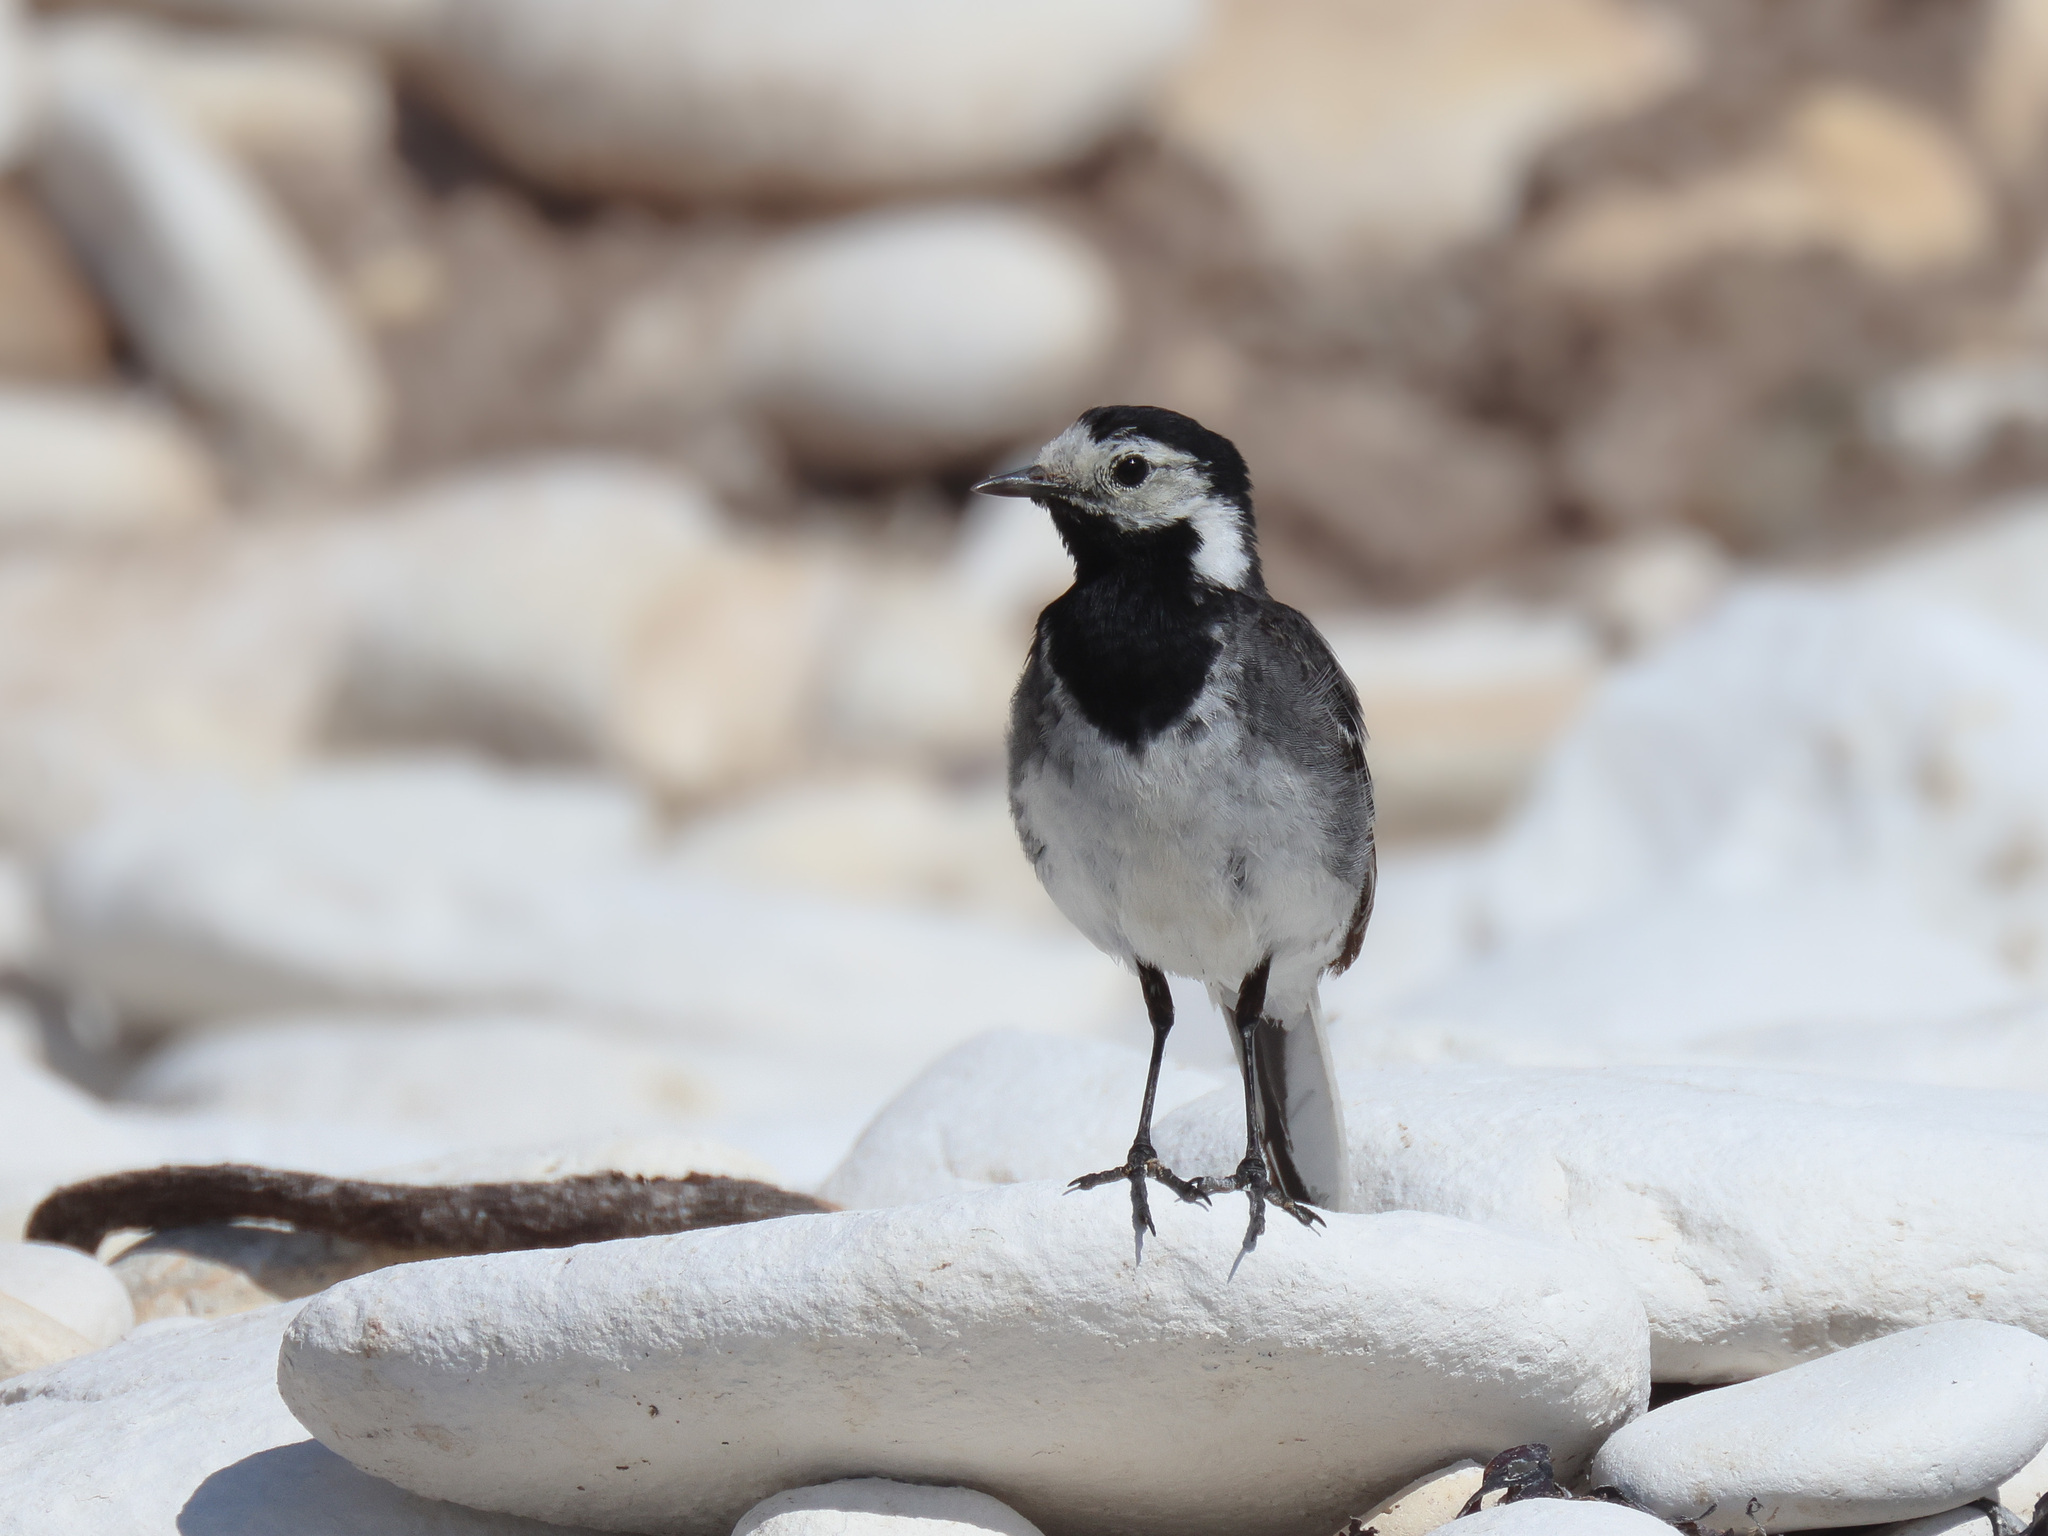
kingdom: Animalia
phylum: Chordata
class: Aves
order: Passeriformes
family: Motacillidae
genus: Motacilla
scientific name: Motacilla alba
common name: White wagtail
